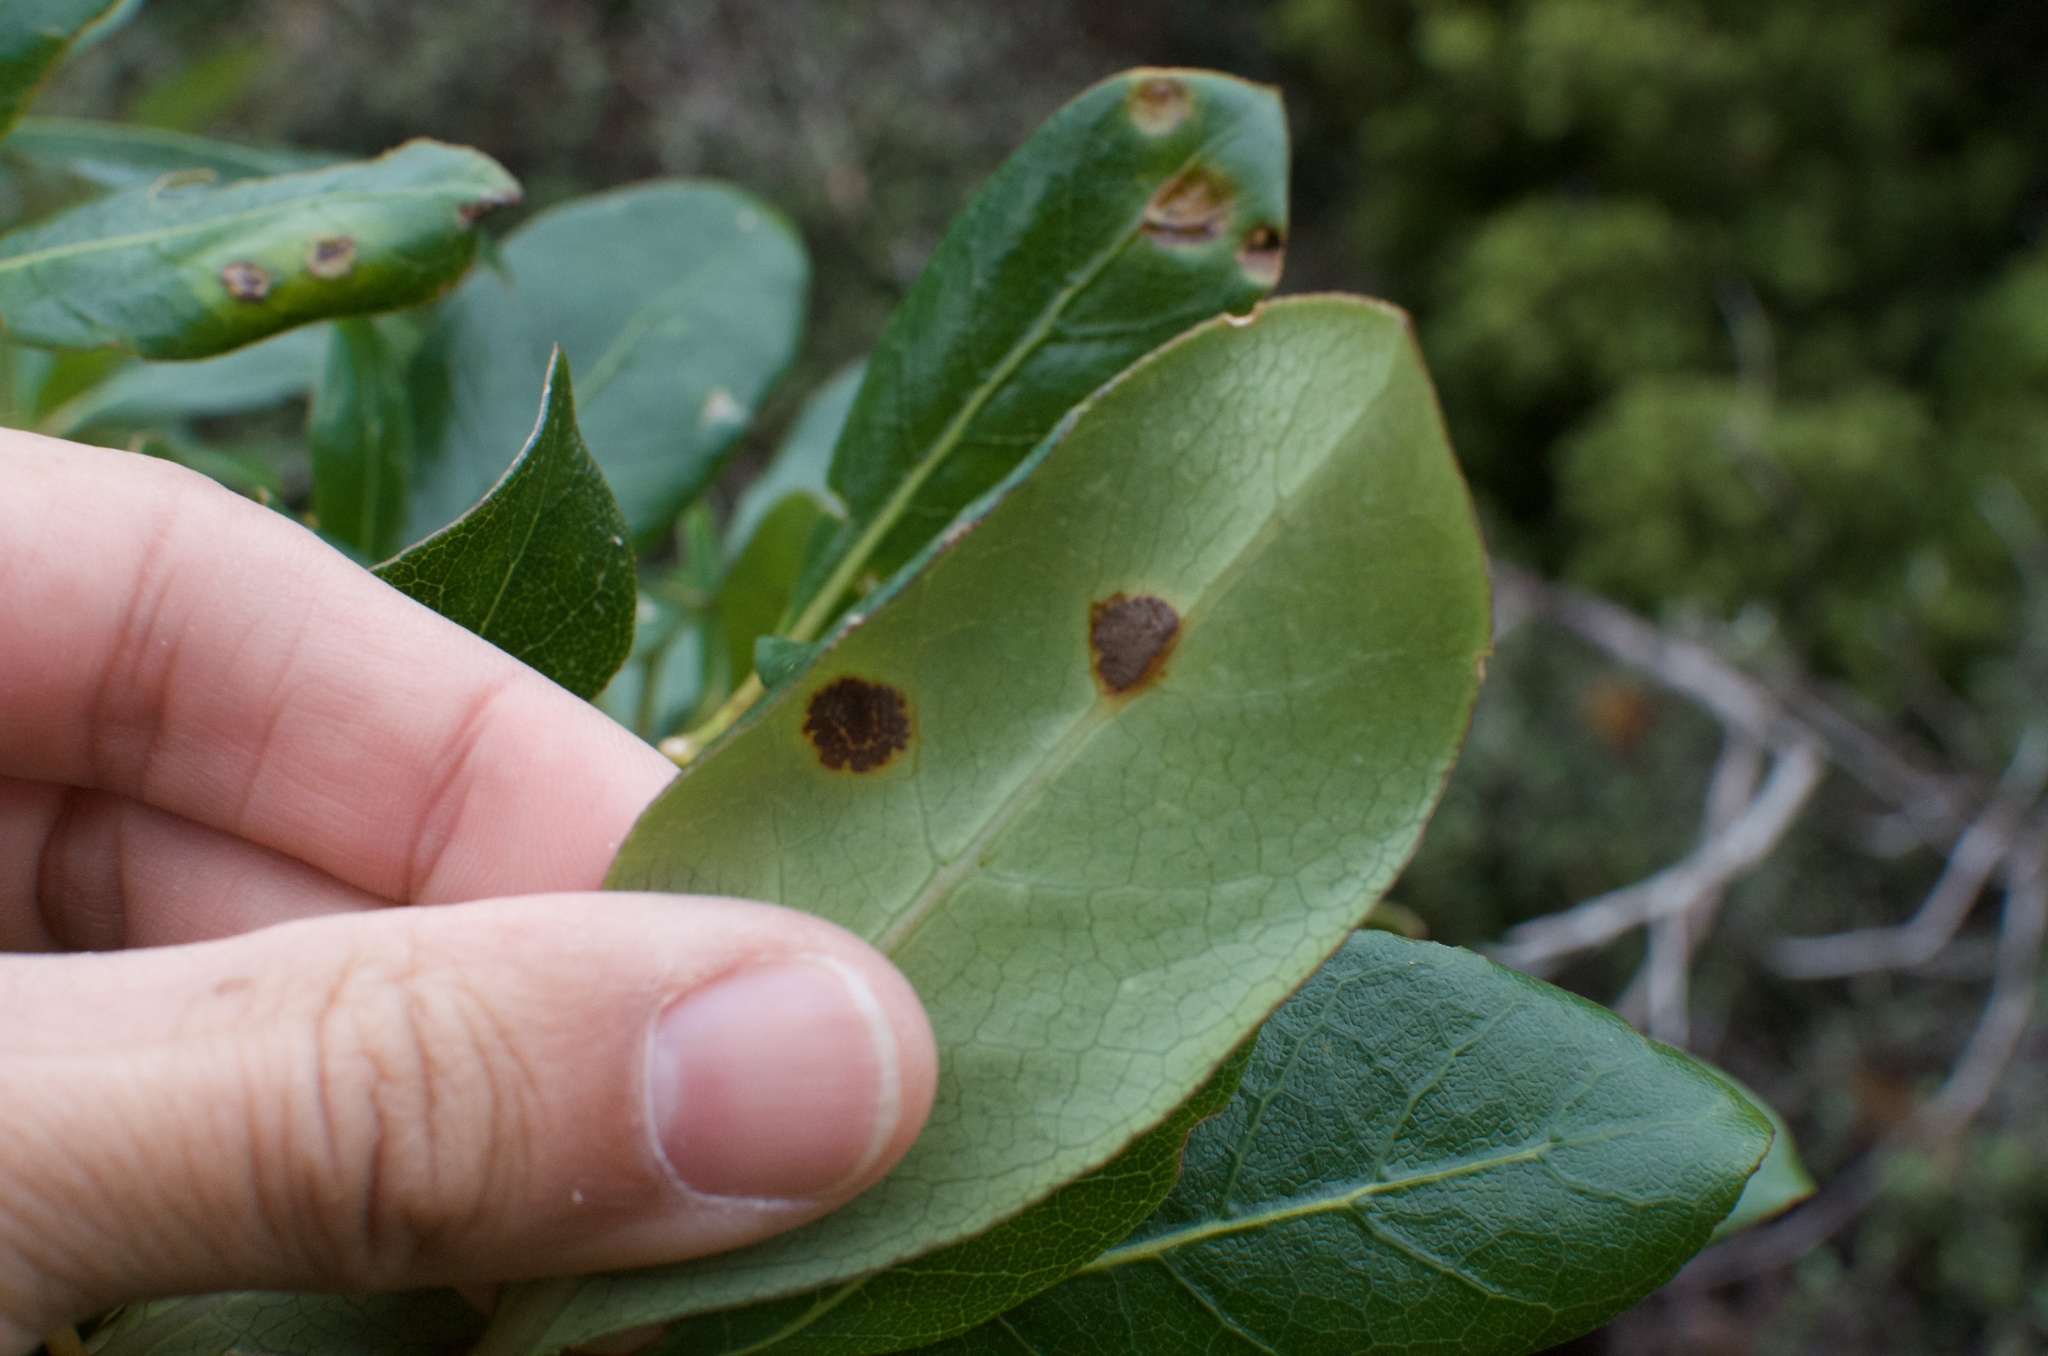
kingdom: Fungi
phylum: Basidiomycota
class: Pucciniomycetes
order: Pucciniales
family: Pucciniaceae
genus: Puccinia
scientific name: Puccinia coprosmae
